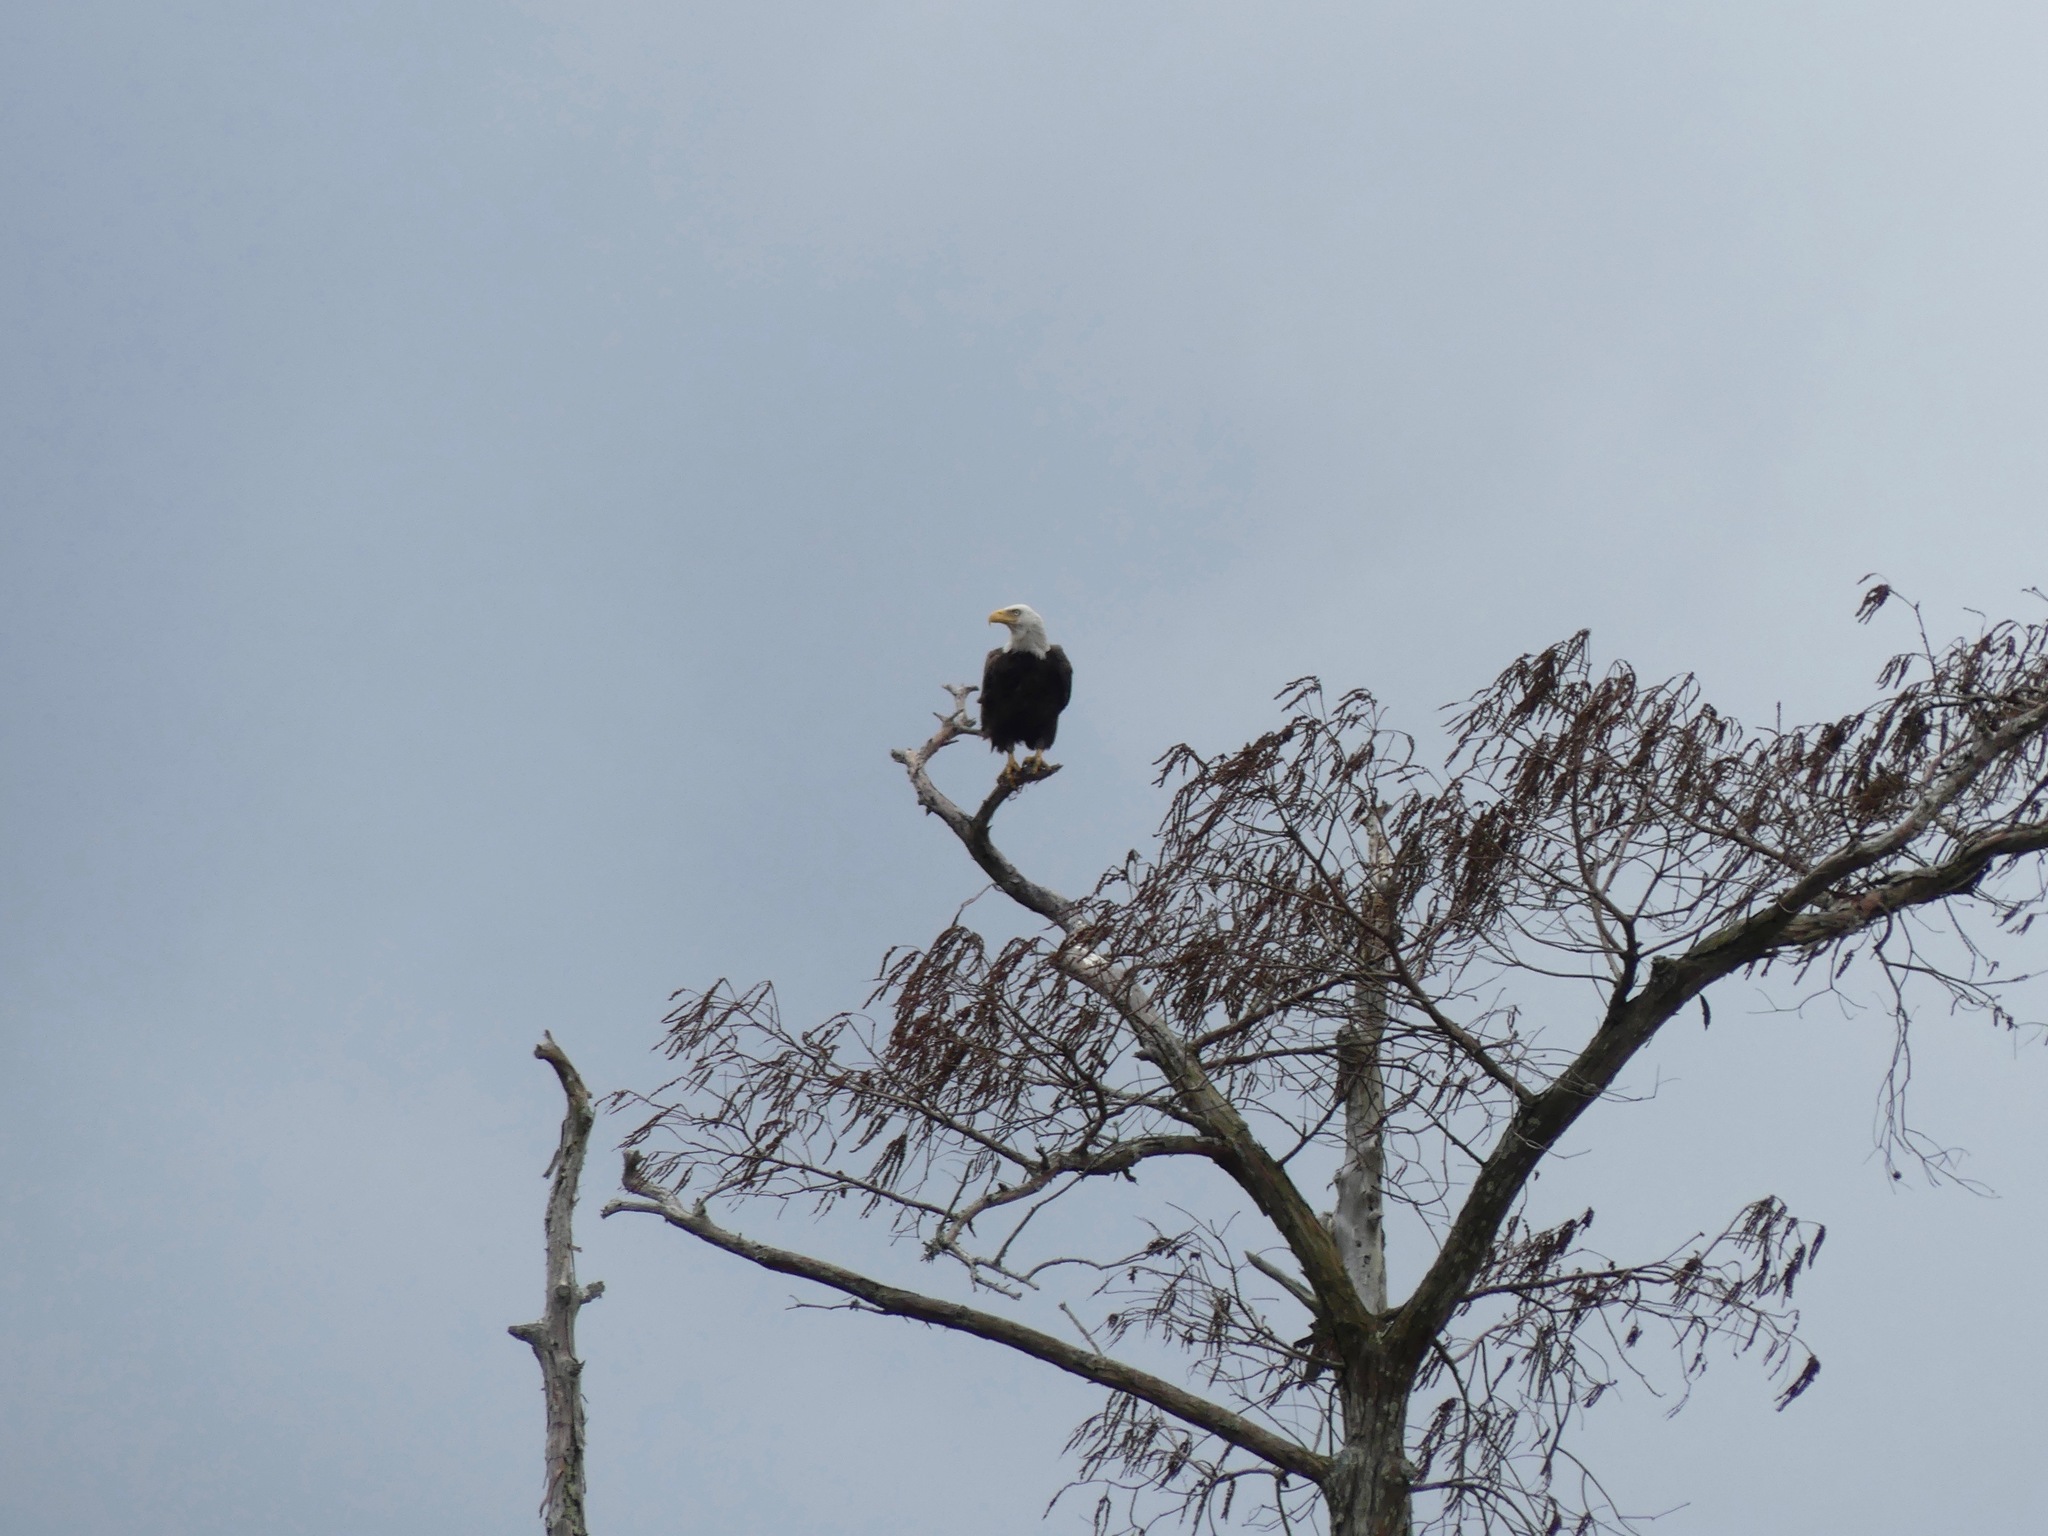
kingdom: Animalia
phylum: Chordata
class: Aves
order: Accipitriformes
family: Accipitridae
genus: Haliaeetus
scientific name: Haliaeetus leucocephalus
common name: Bald eagle
